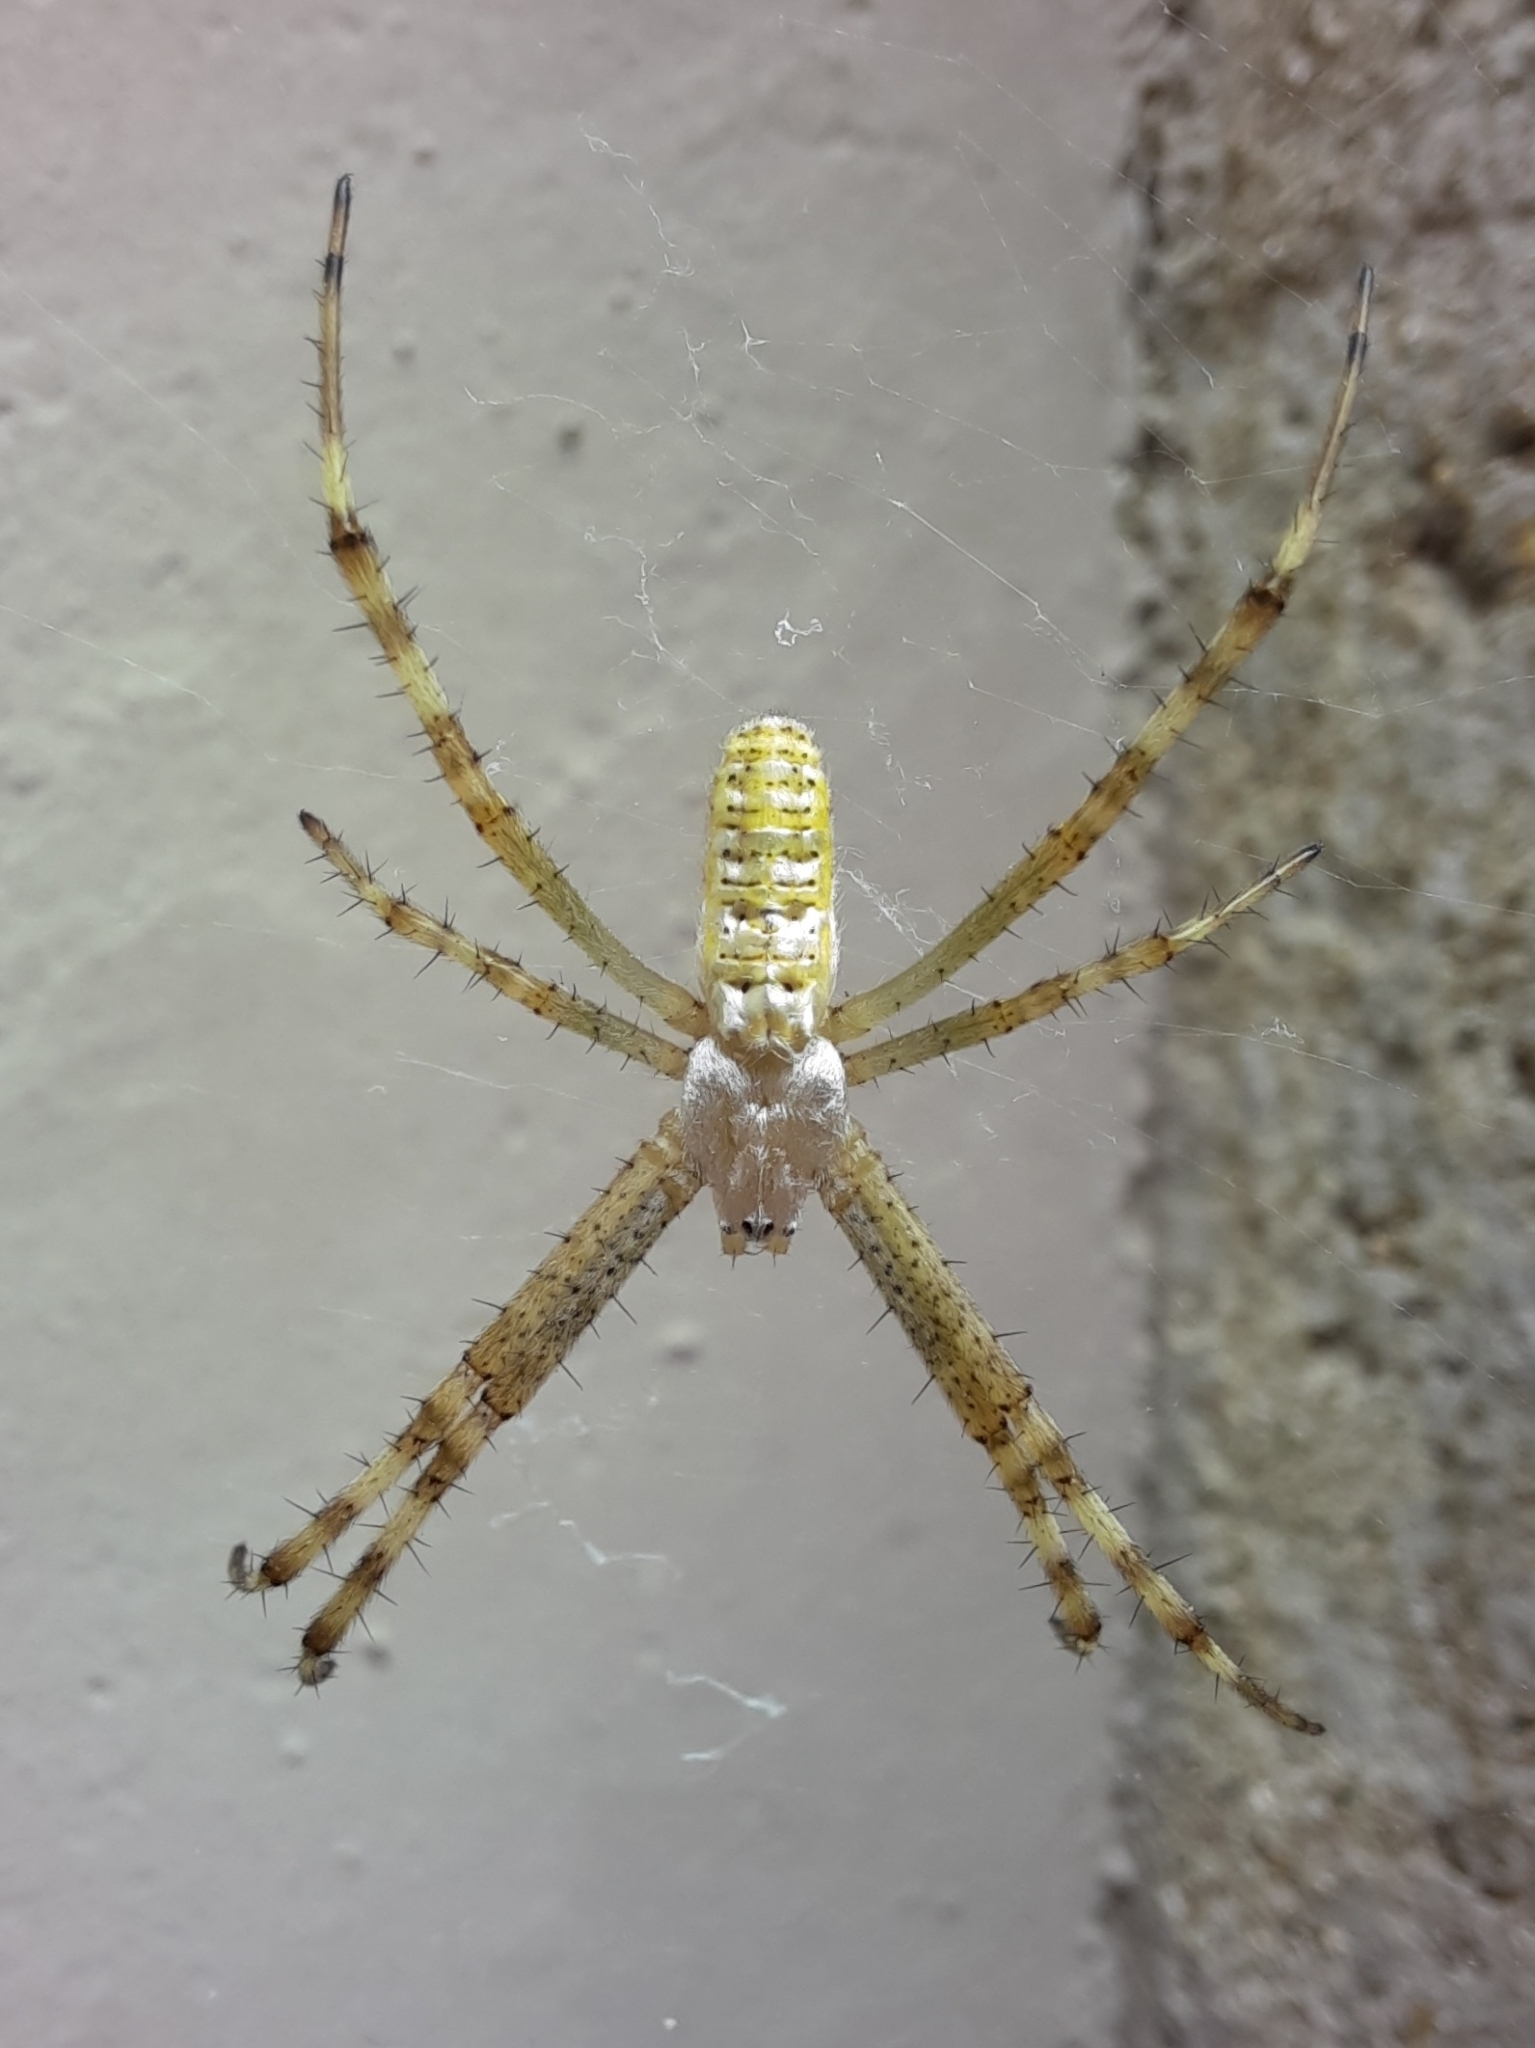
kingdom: Animalia
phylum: Arthropoda
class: Arachnida
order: Araneae
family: Araneidae
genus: Argiope
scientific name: Argiope bruennichi
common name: Wasp spider
